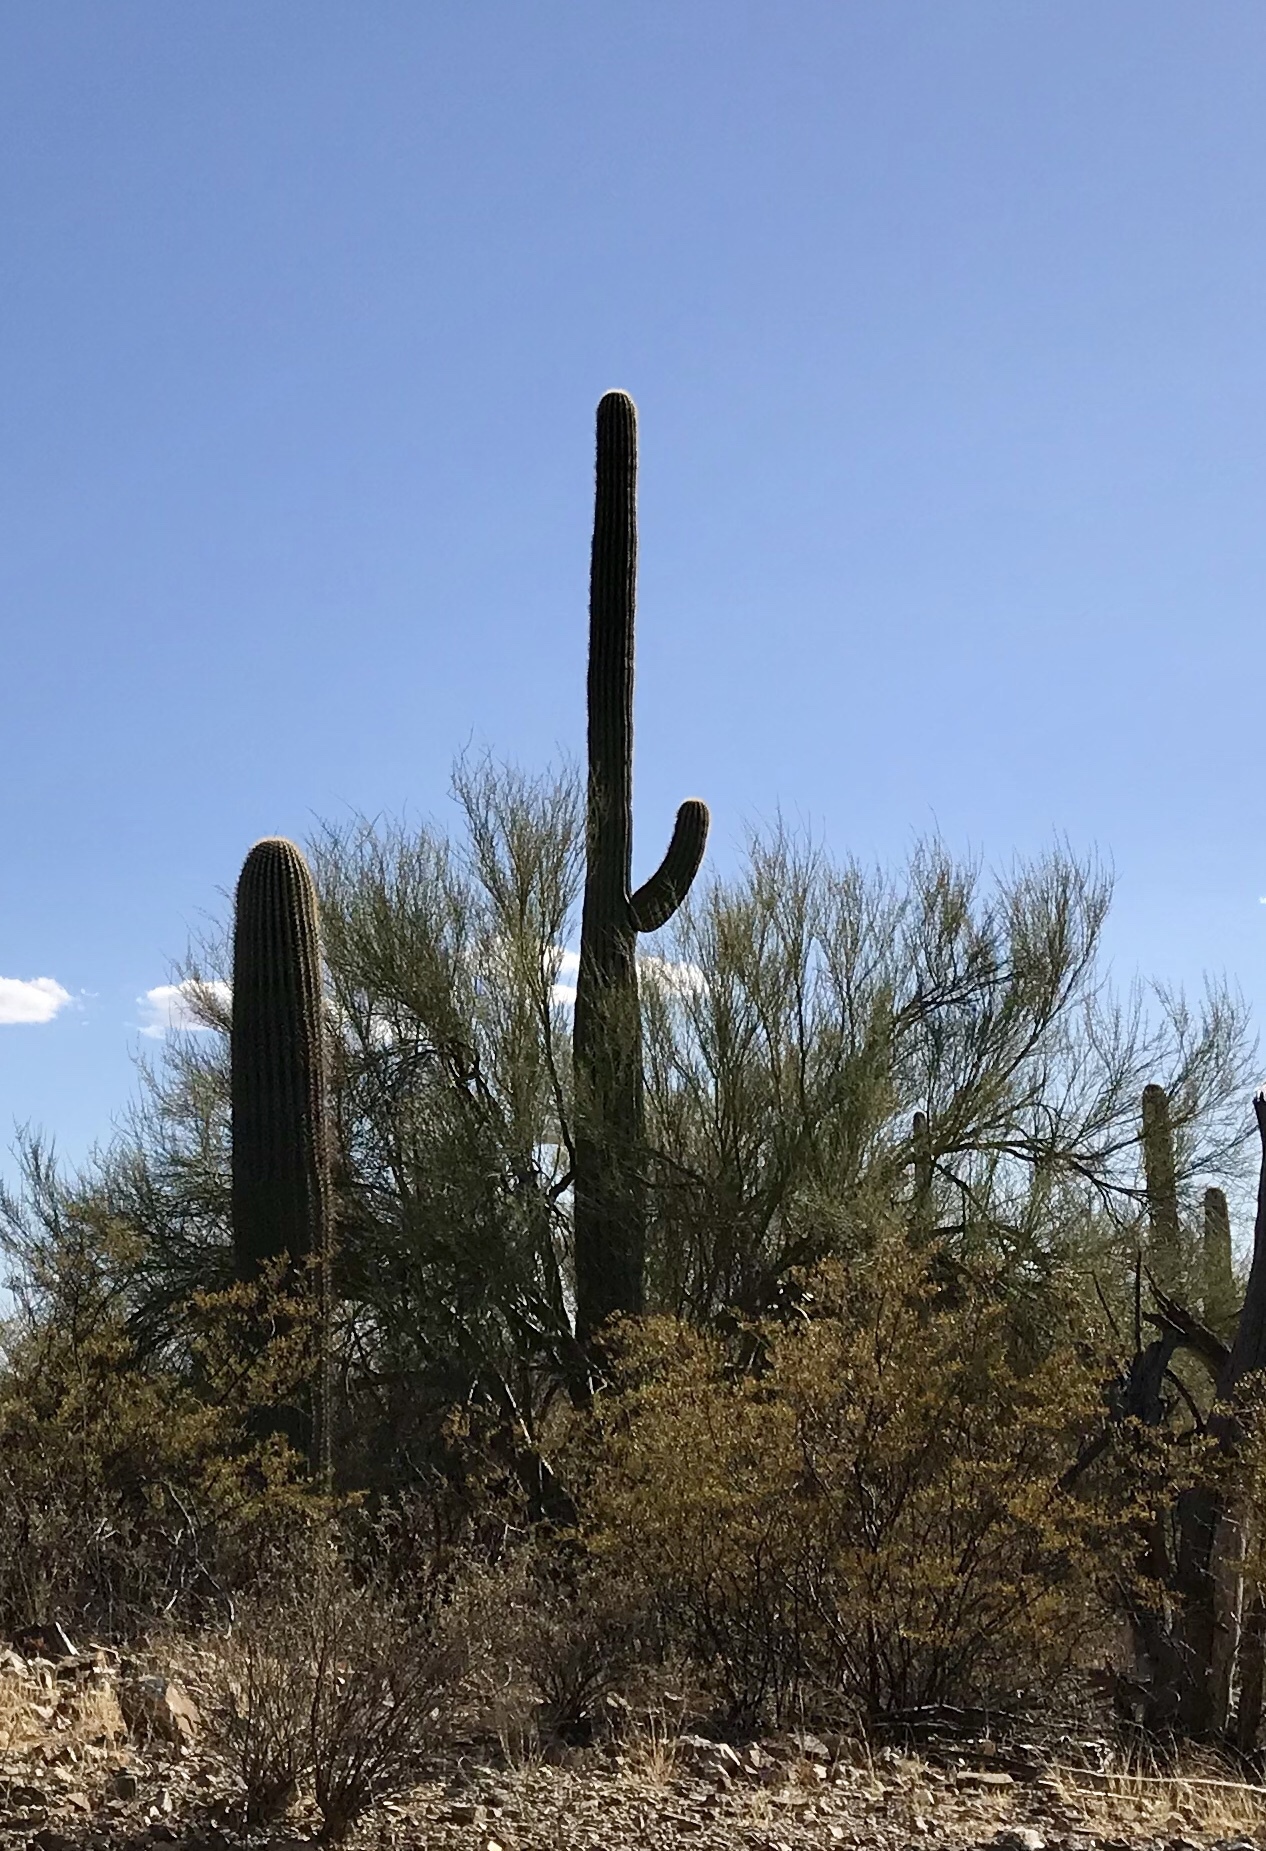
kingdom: Plantae
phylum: Tracheophyta
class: Magnoliopsida
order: Caryophyllales
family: Cactaceae
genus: Carnegiea
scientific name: Carnegiea gigantea
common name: Saguaro
